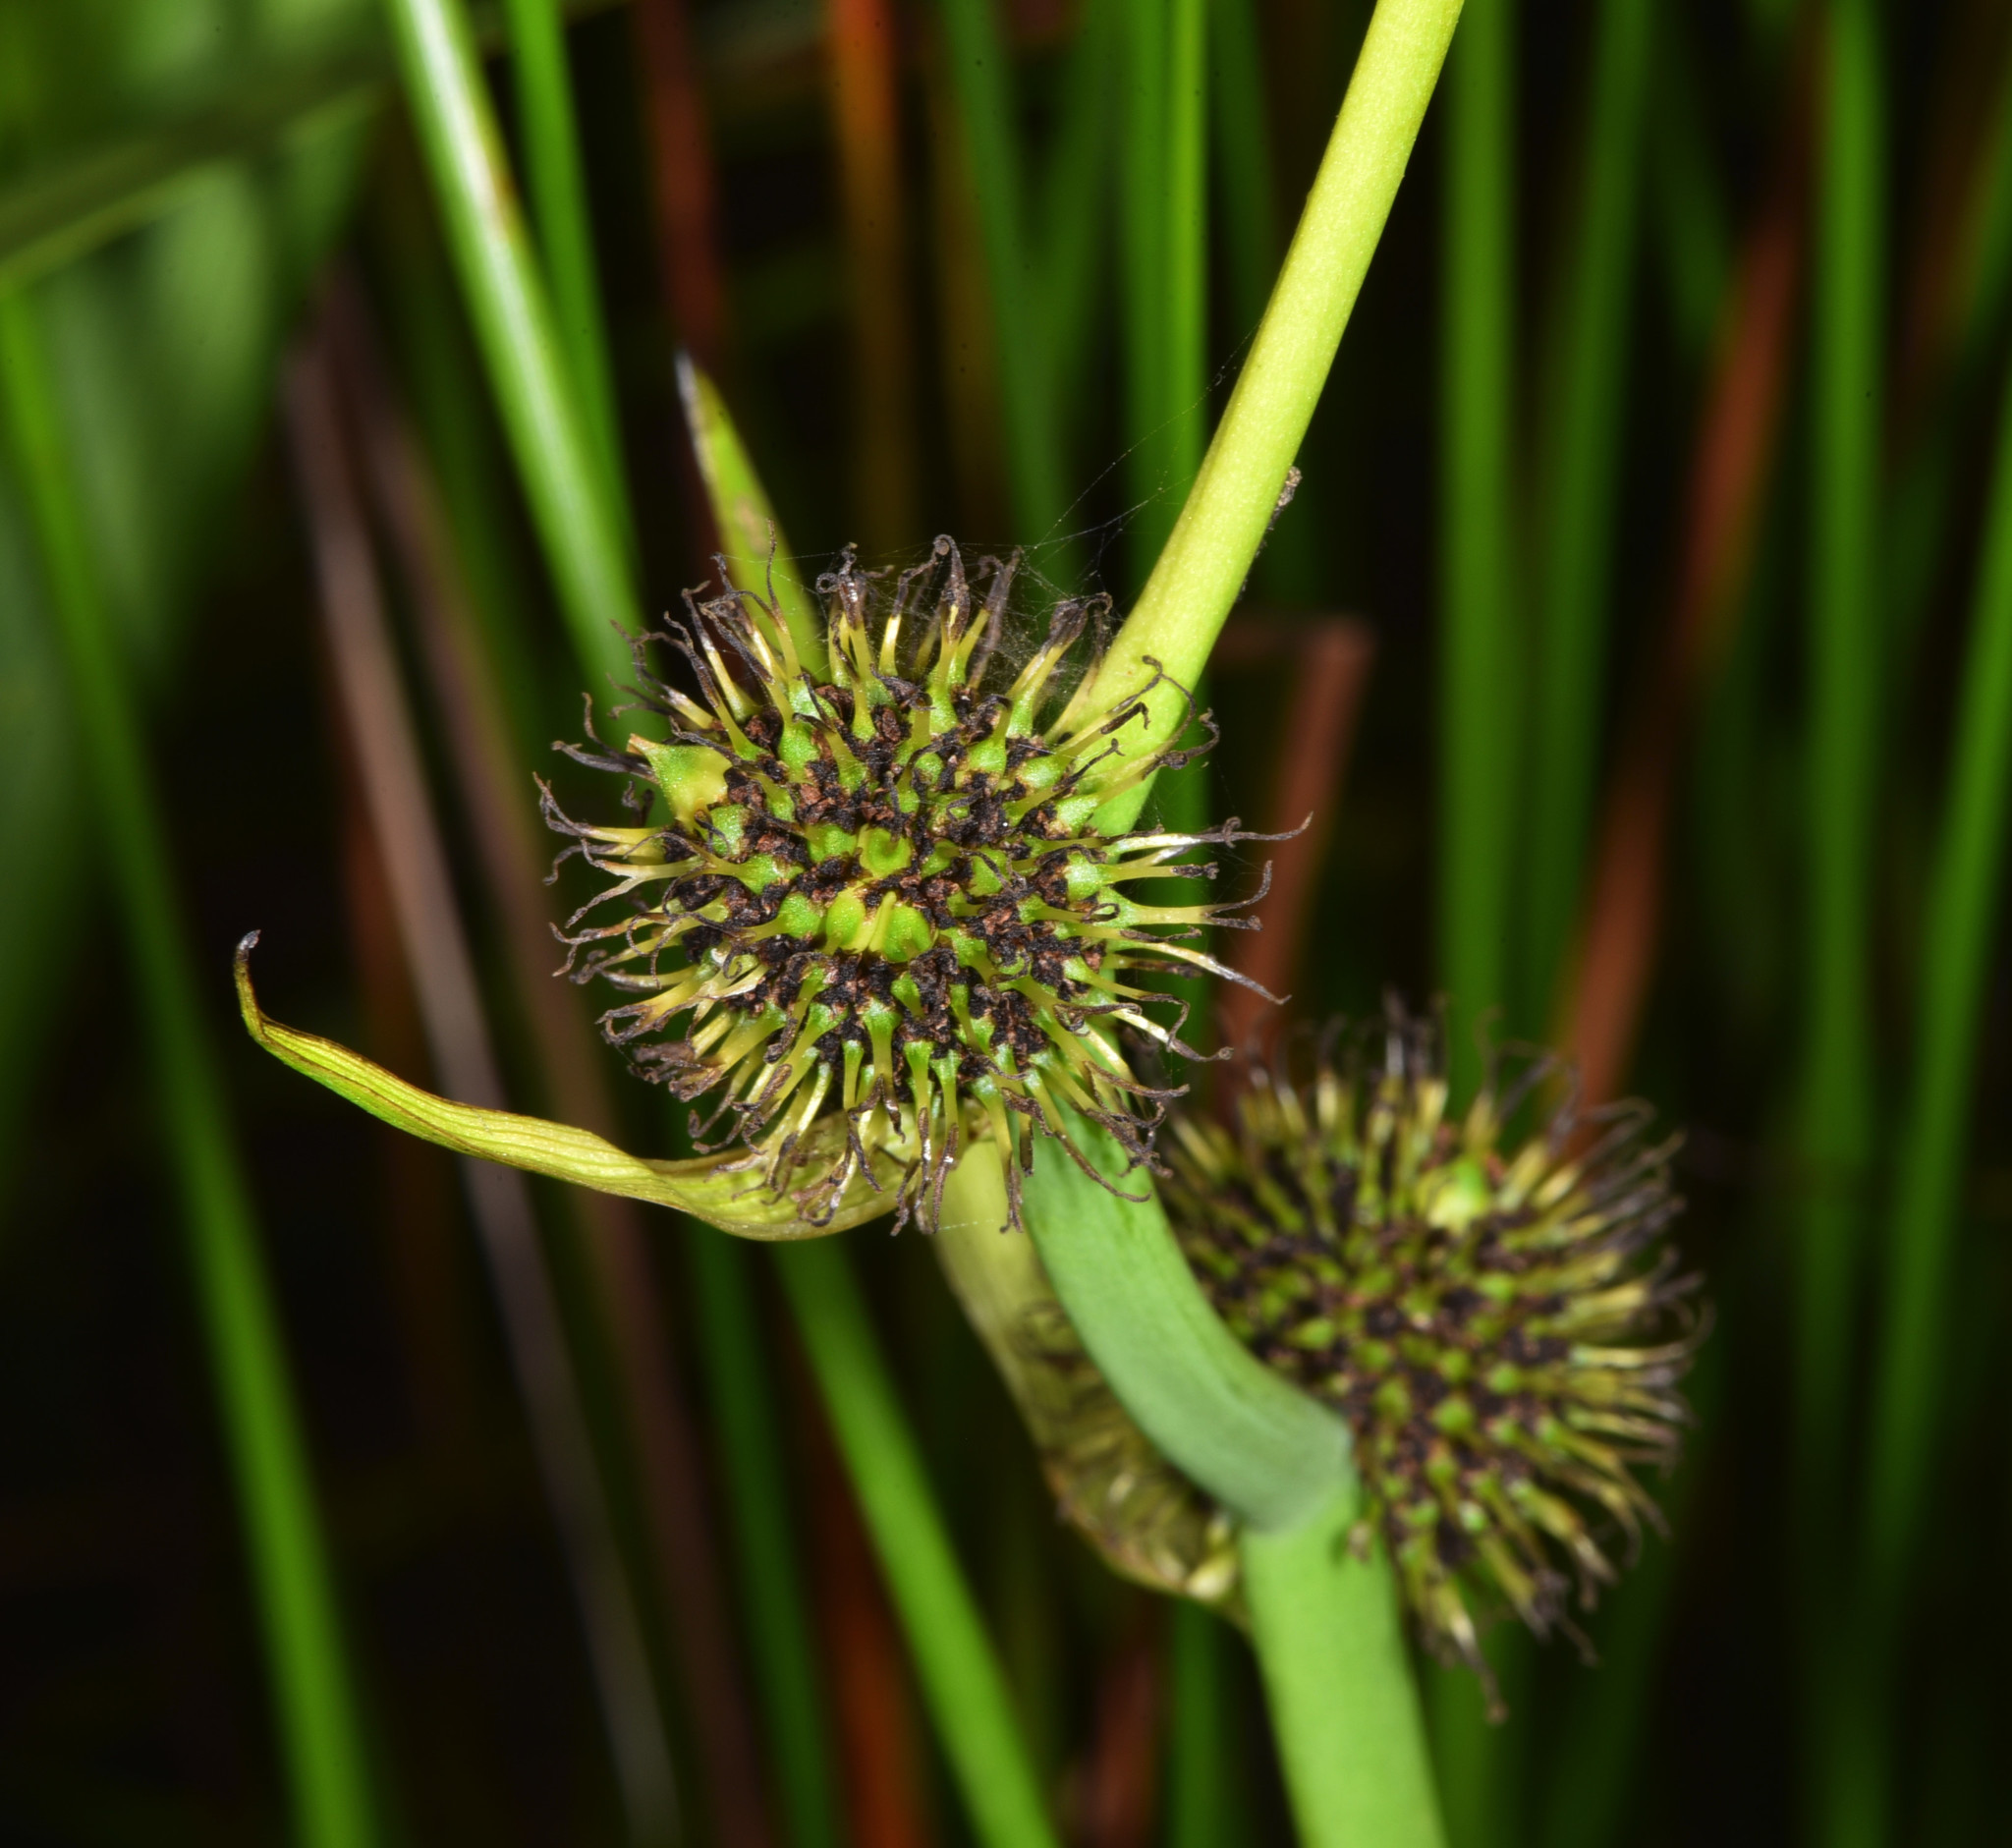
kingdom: Plantae
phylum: Tracheophyta
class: Liliopsida
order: Poales
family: Typhaceae
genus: Sparganium
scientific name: Sparganium eurycarpum
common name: Broad-fruited burreed
